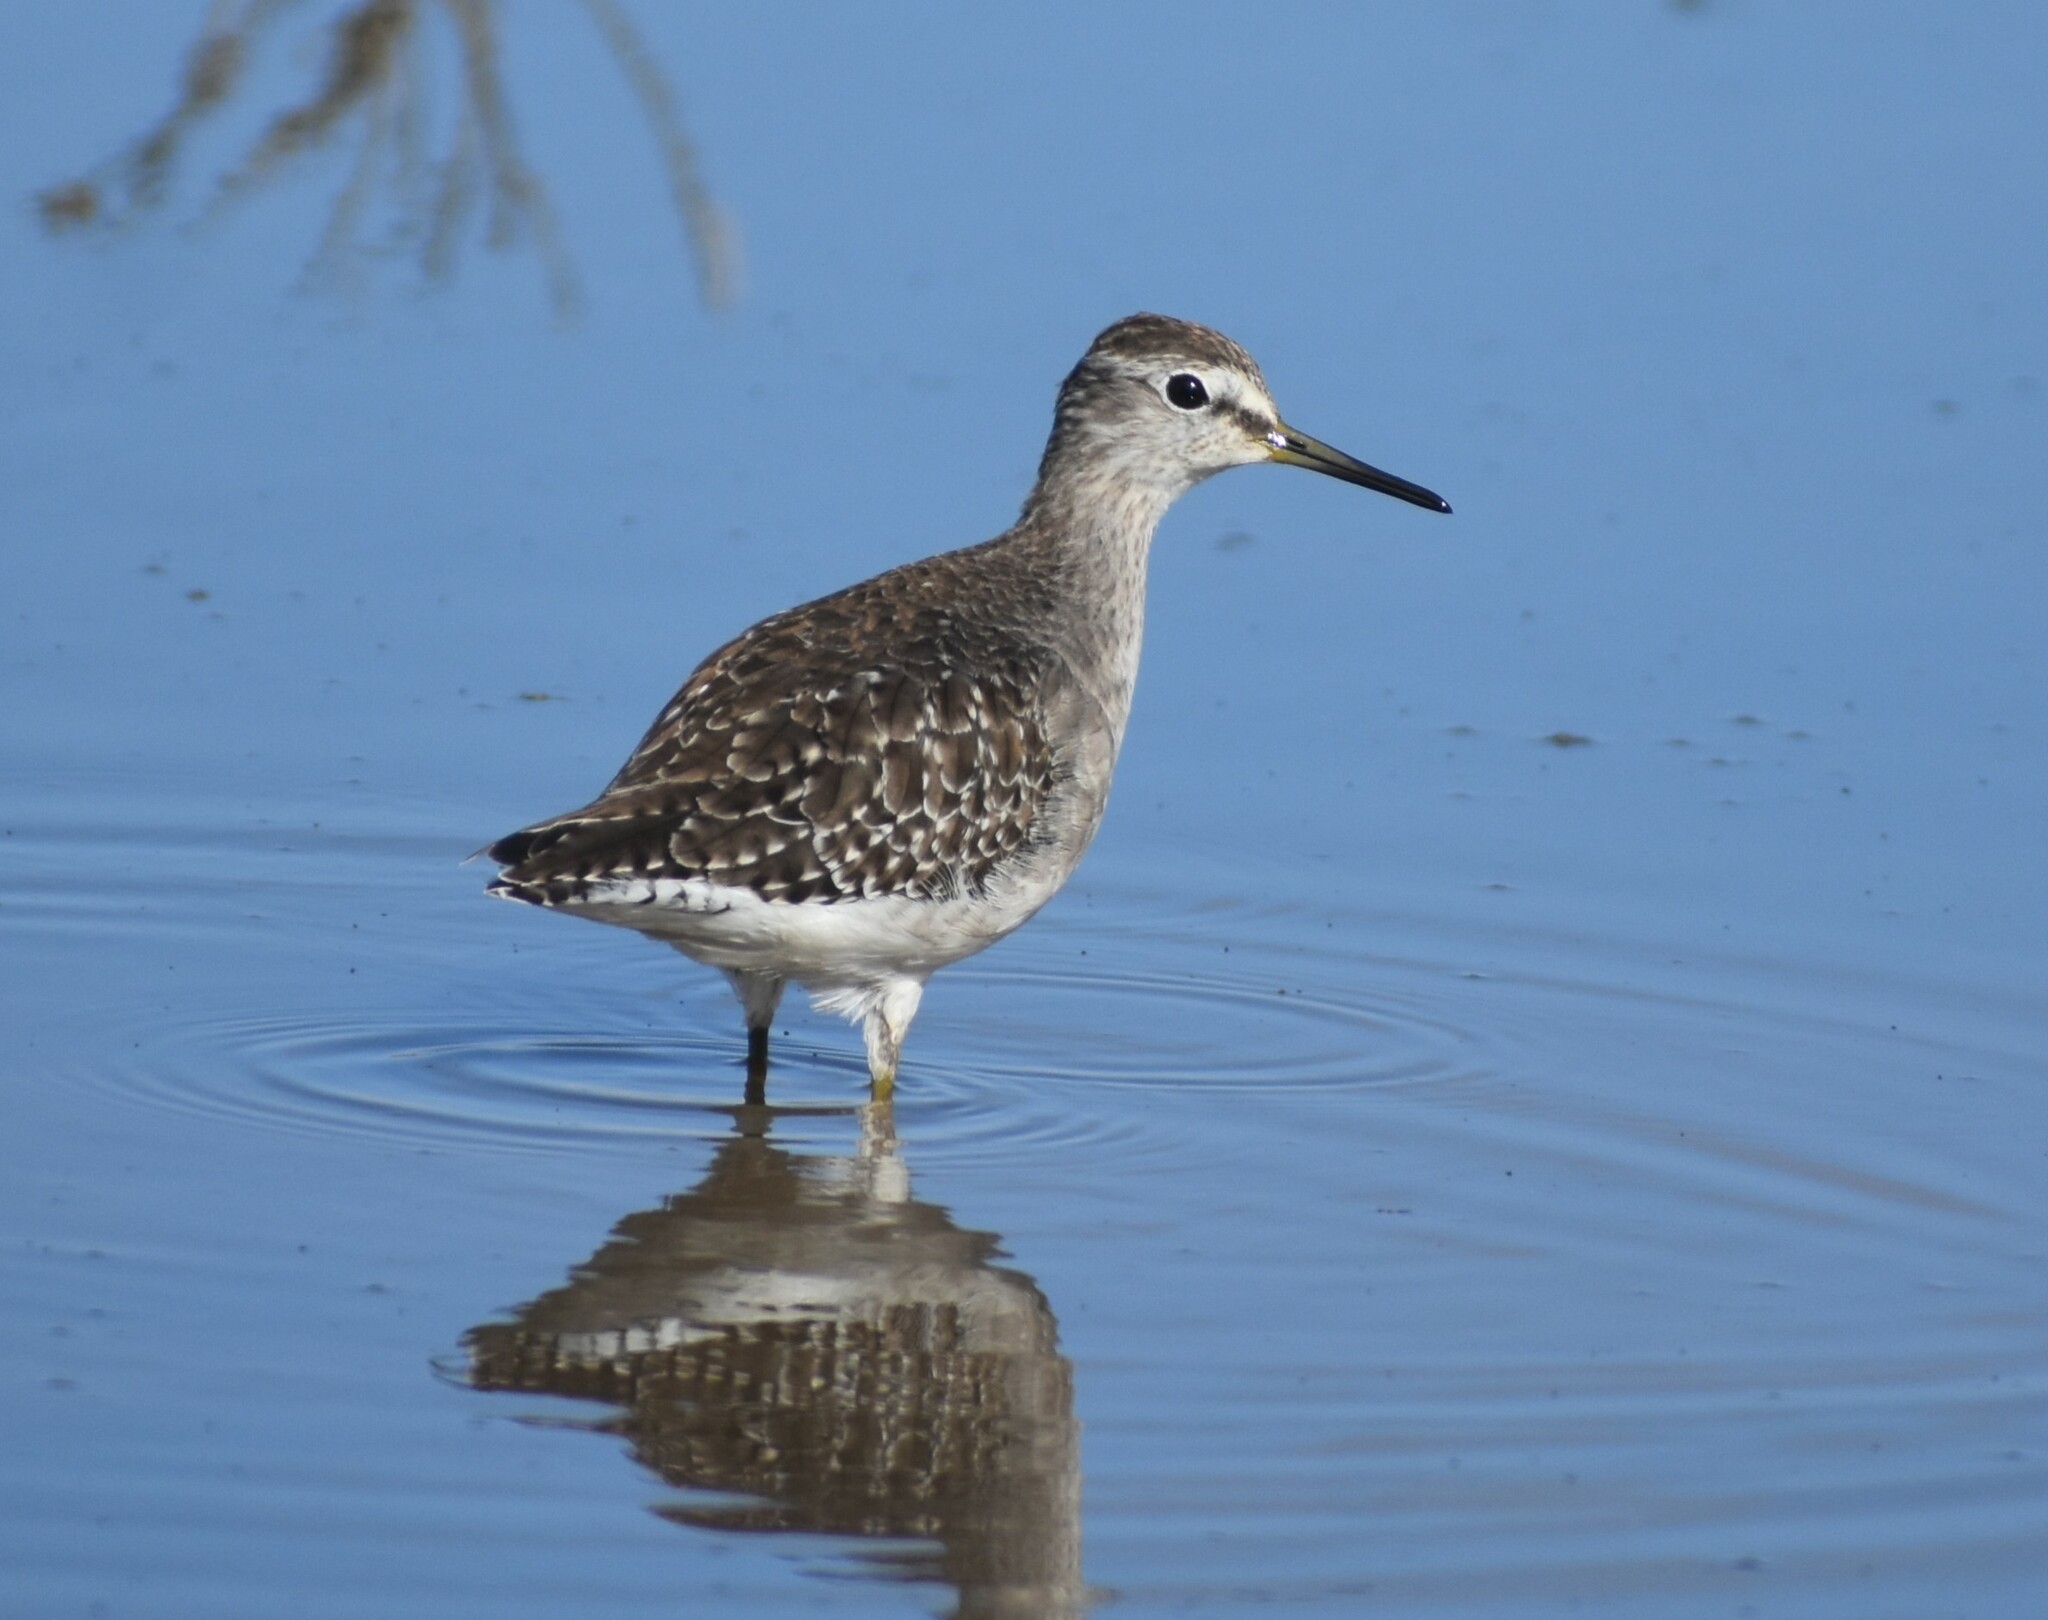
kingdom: Animalia
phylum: Chordata
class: Aves
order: Charadriiformes
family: Scolopacidae
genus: Tringa
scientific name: Tringa glareola
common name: Wood sandpiper
